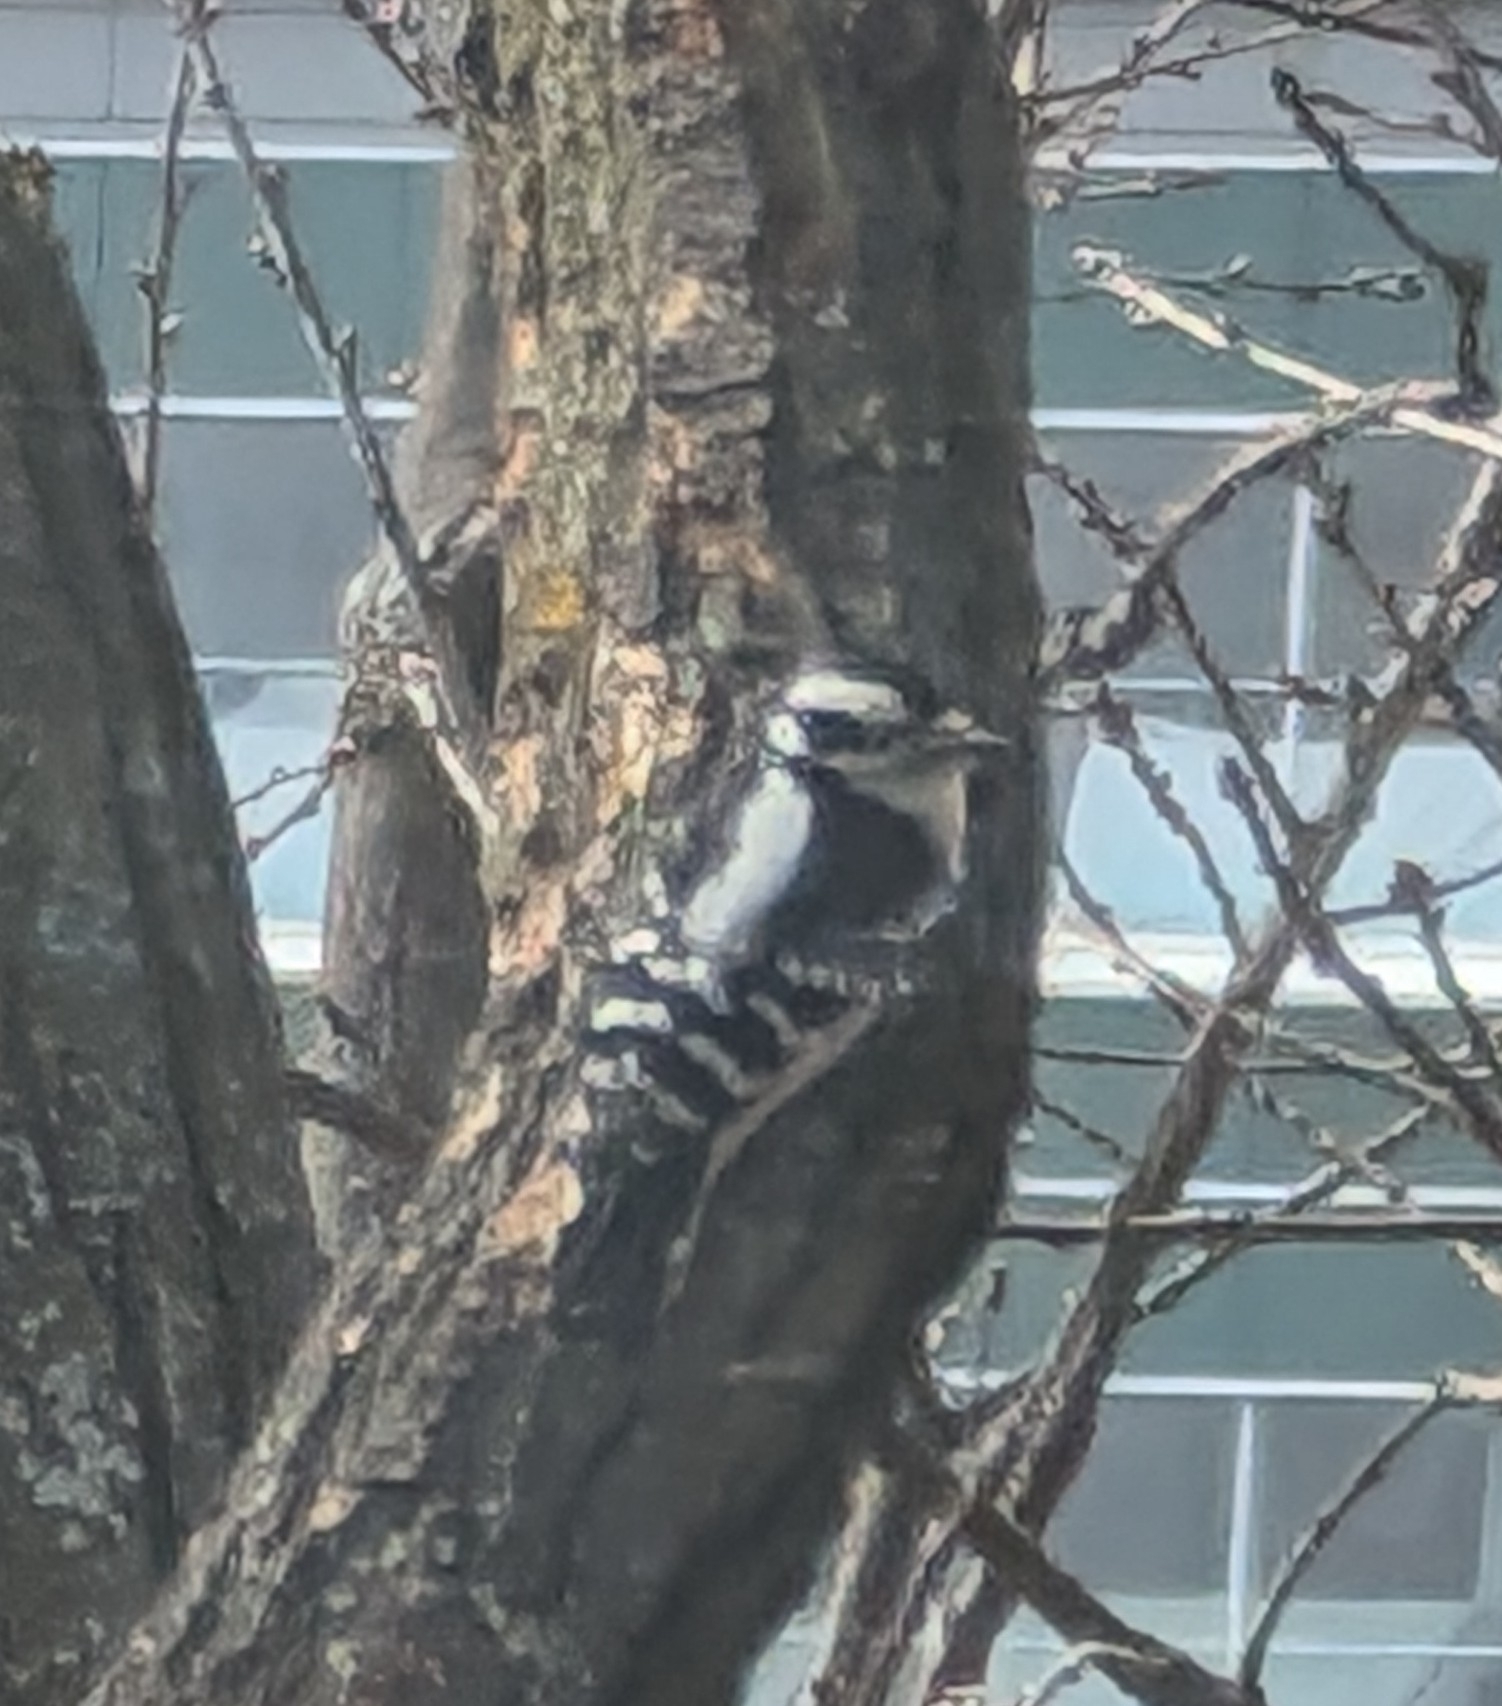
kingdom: Animalia
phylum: Chordata
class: Aves
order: Piciformes
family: Picidae
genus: Dryobates
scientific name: Dryobates pubescens
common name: Downy woodpecker
